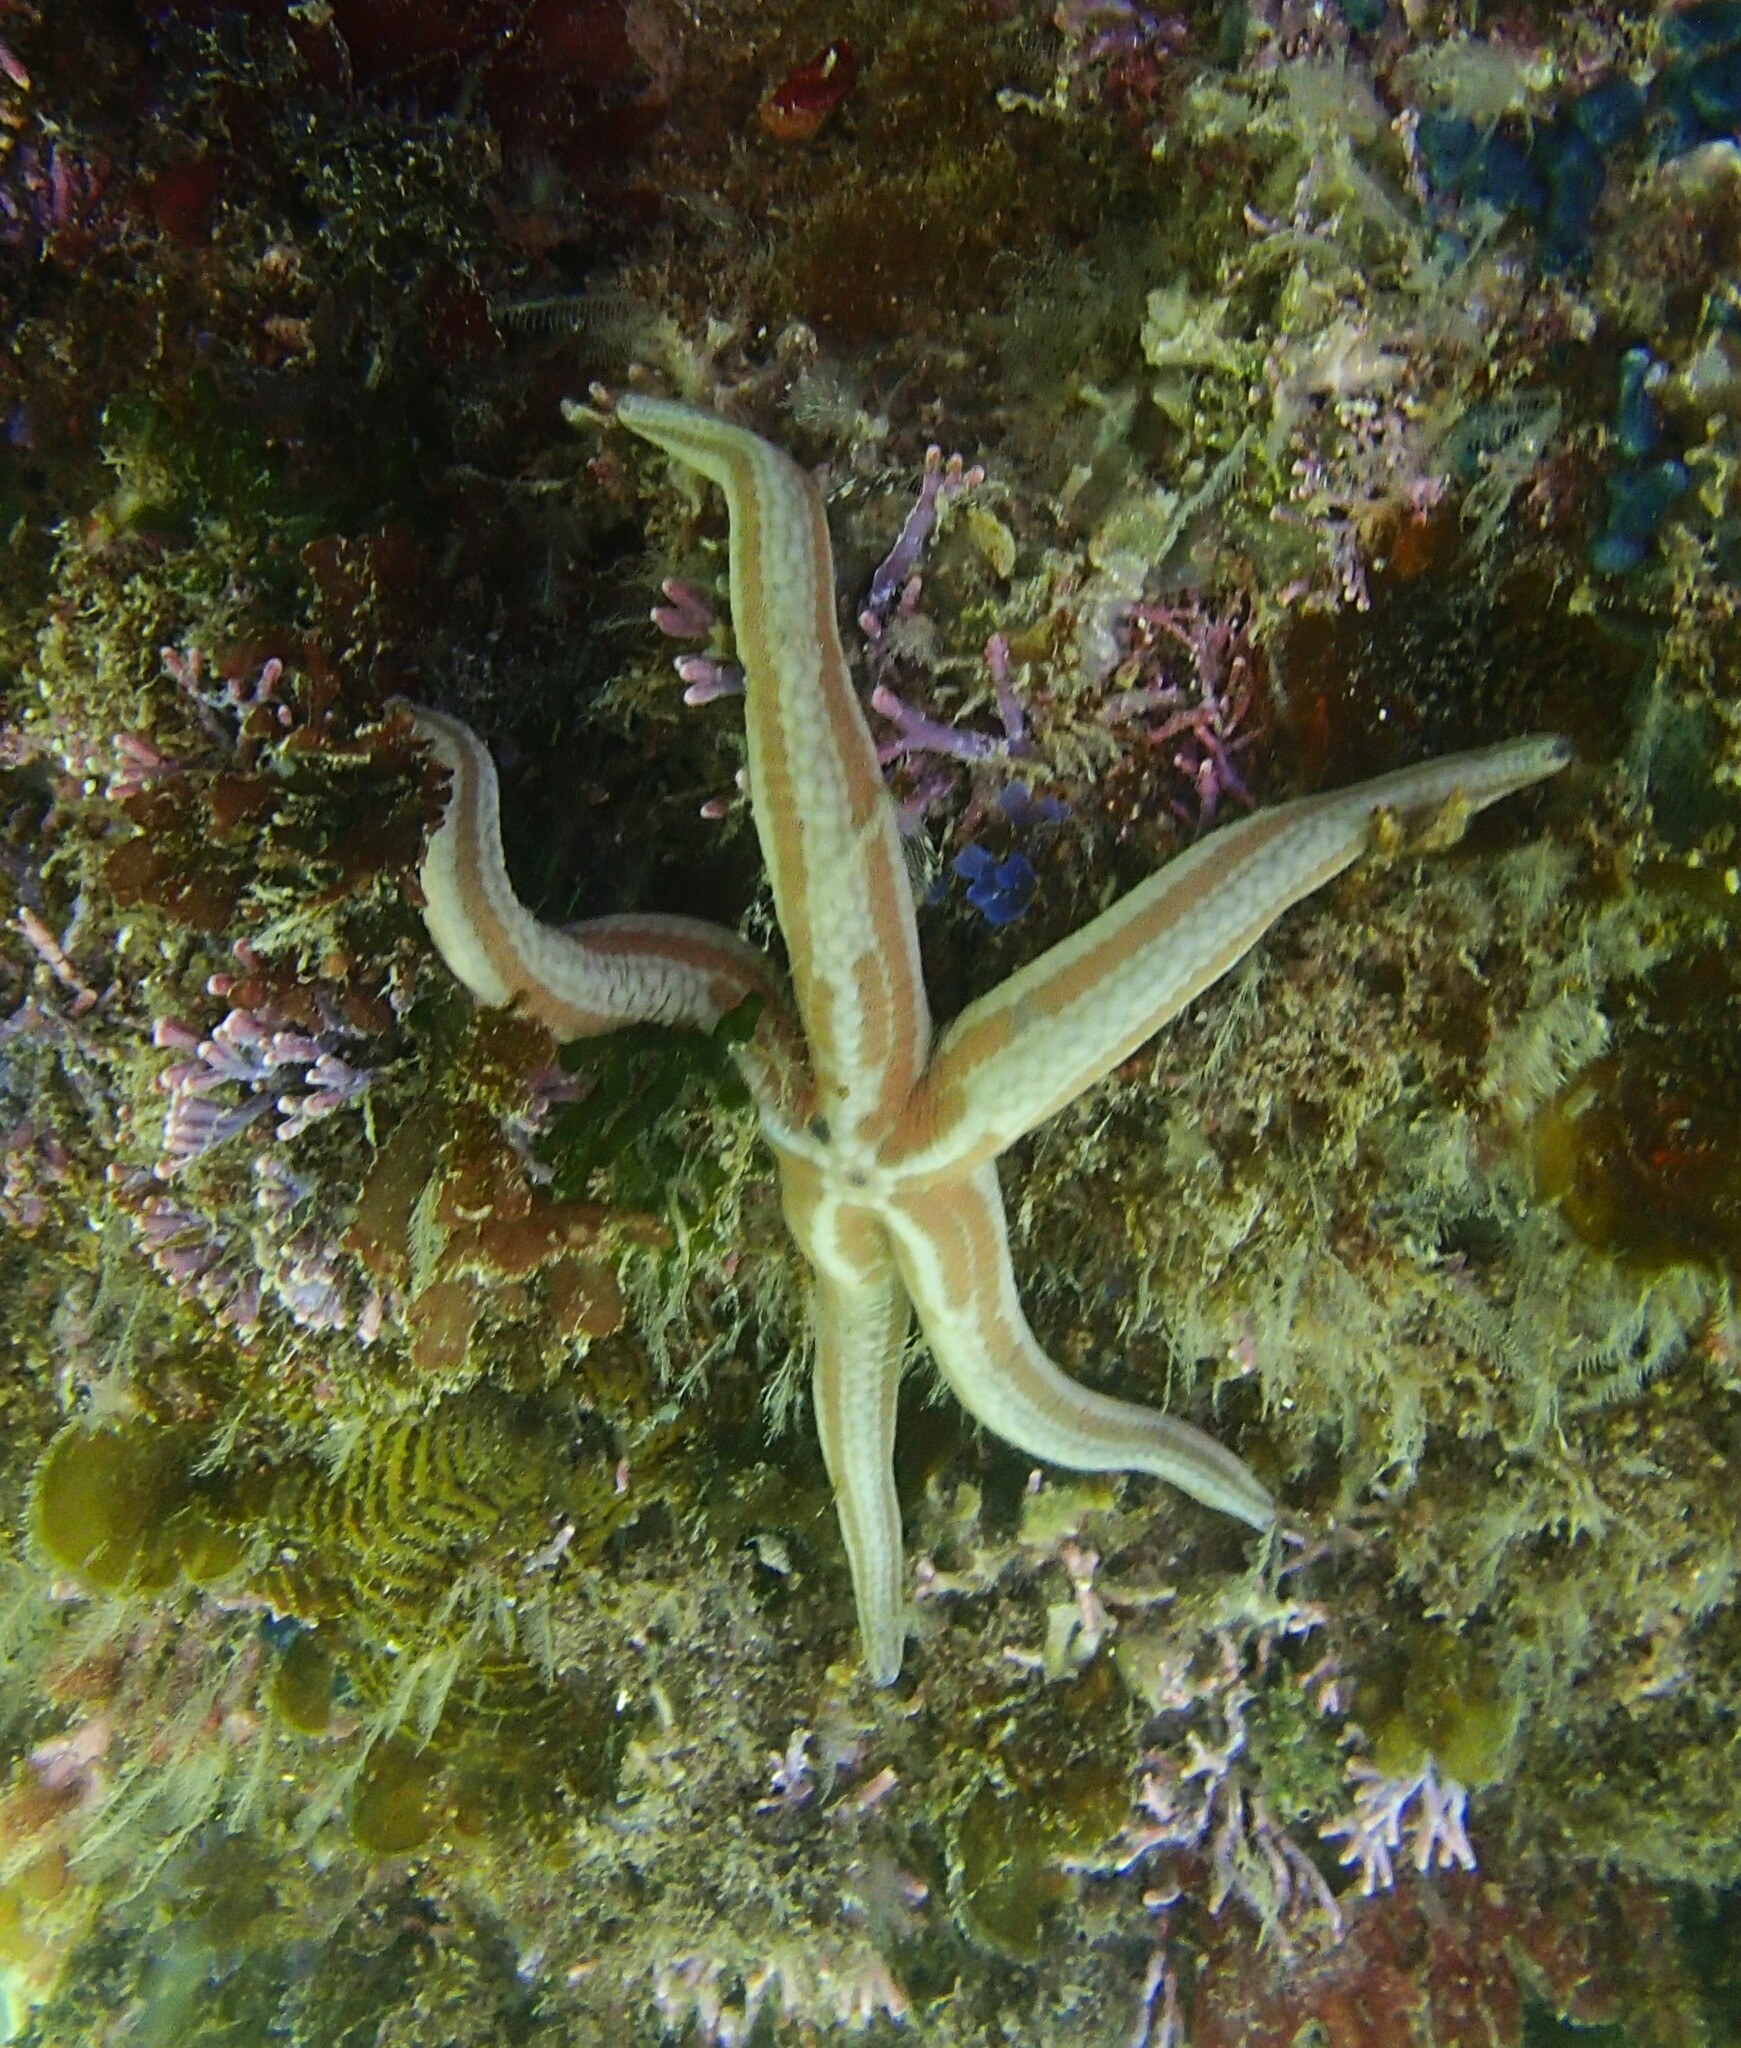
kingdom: Animalia
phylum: Echinodermata
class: Asteroidea
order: Valvatida
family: Ophidiasteridae
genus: Phataria
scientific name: Phataria unifascialis
